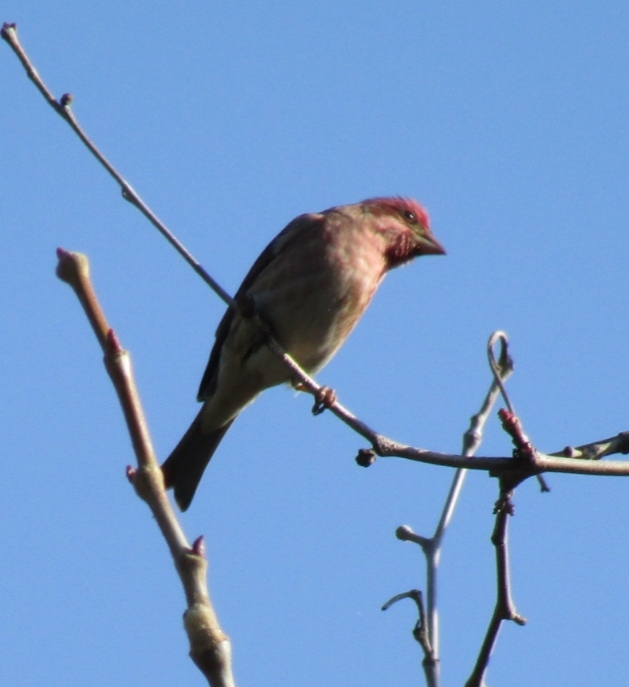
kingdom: Animalia
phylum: Chordata
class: Aves
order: Passeriformes
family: Fringillidae
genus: Haemorhous
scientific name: Haemorhous purpureus
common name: Purple finch
